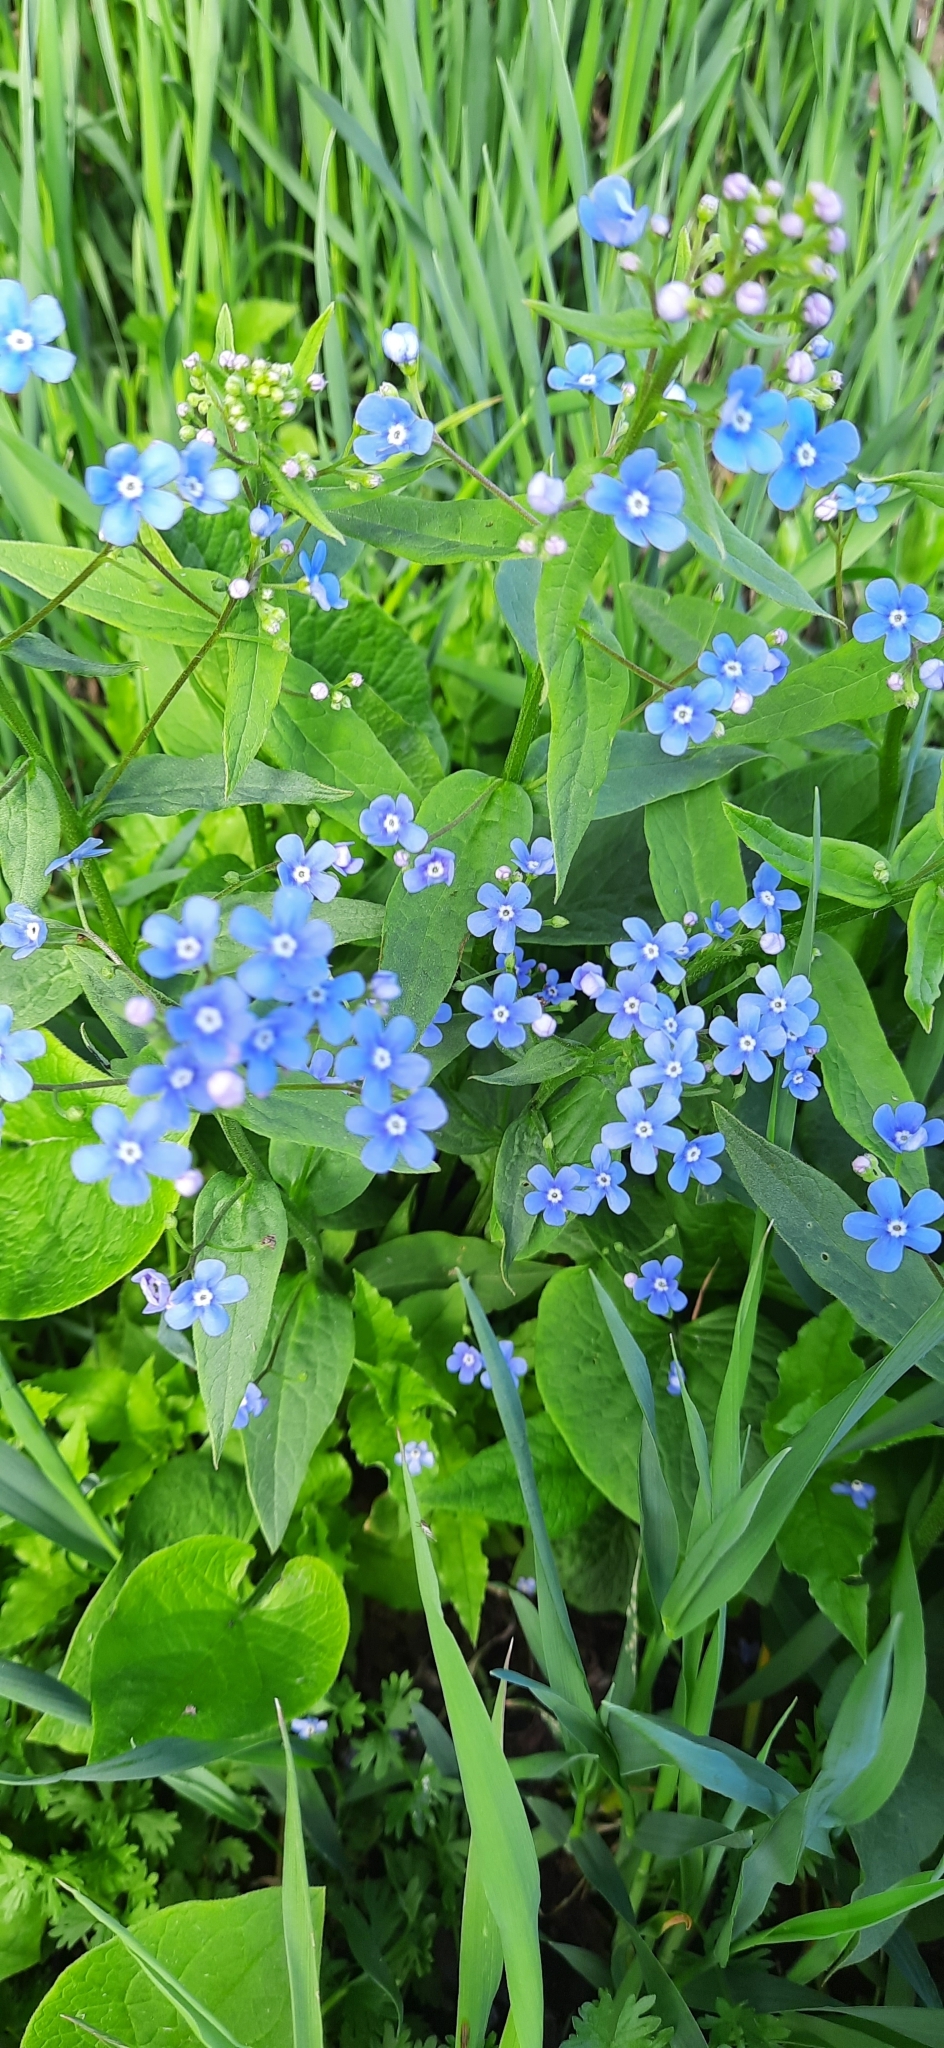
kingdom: Plantae
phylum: Tracheophyta
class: Magnoliopsida
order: Boraginales
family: Boraginaceae
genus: Brunnera
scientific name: Brunnera sibirica
